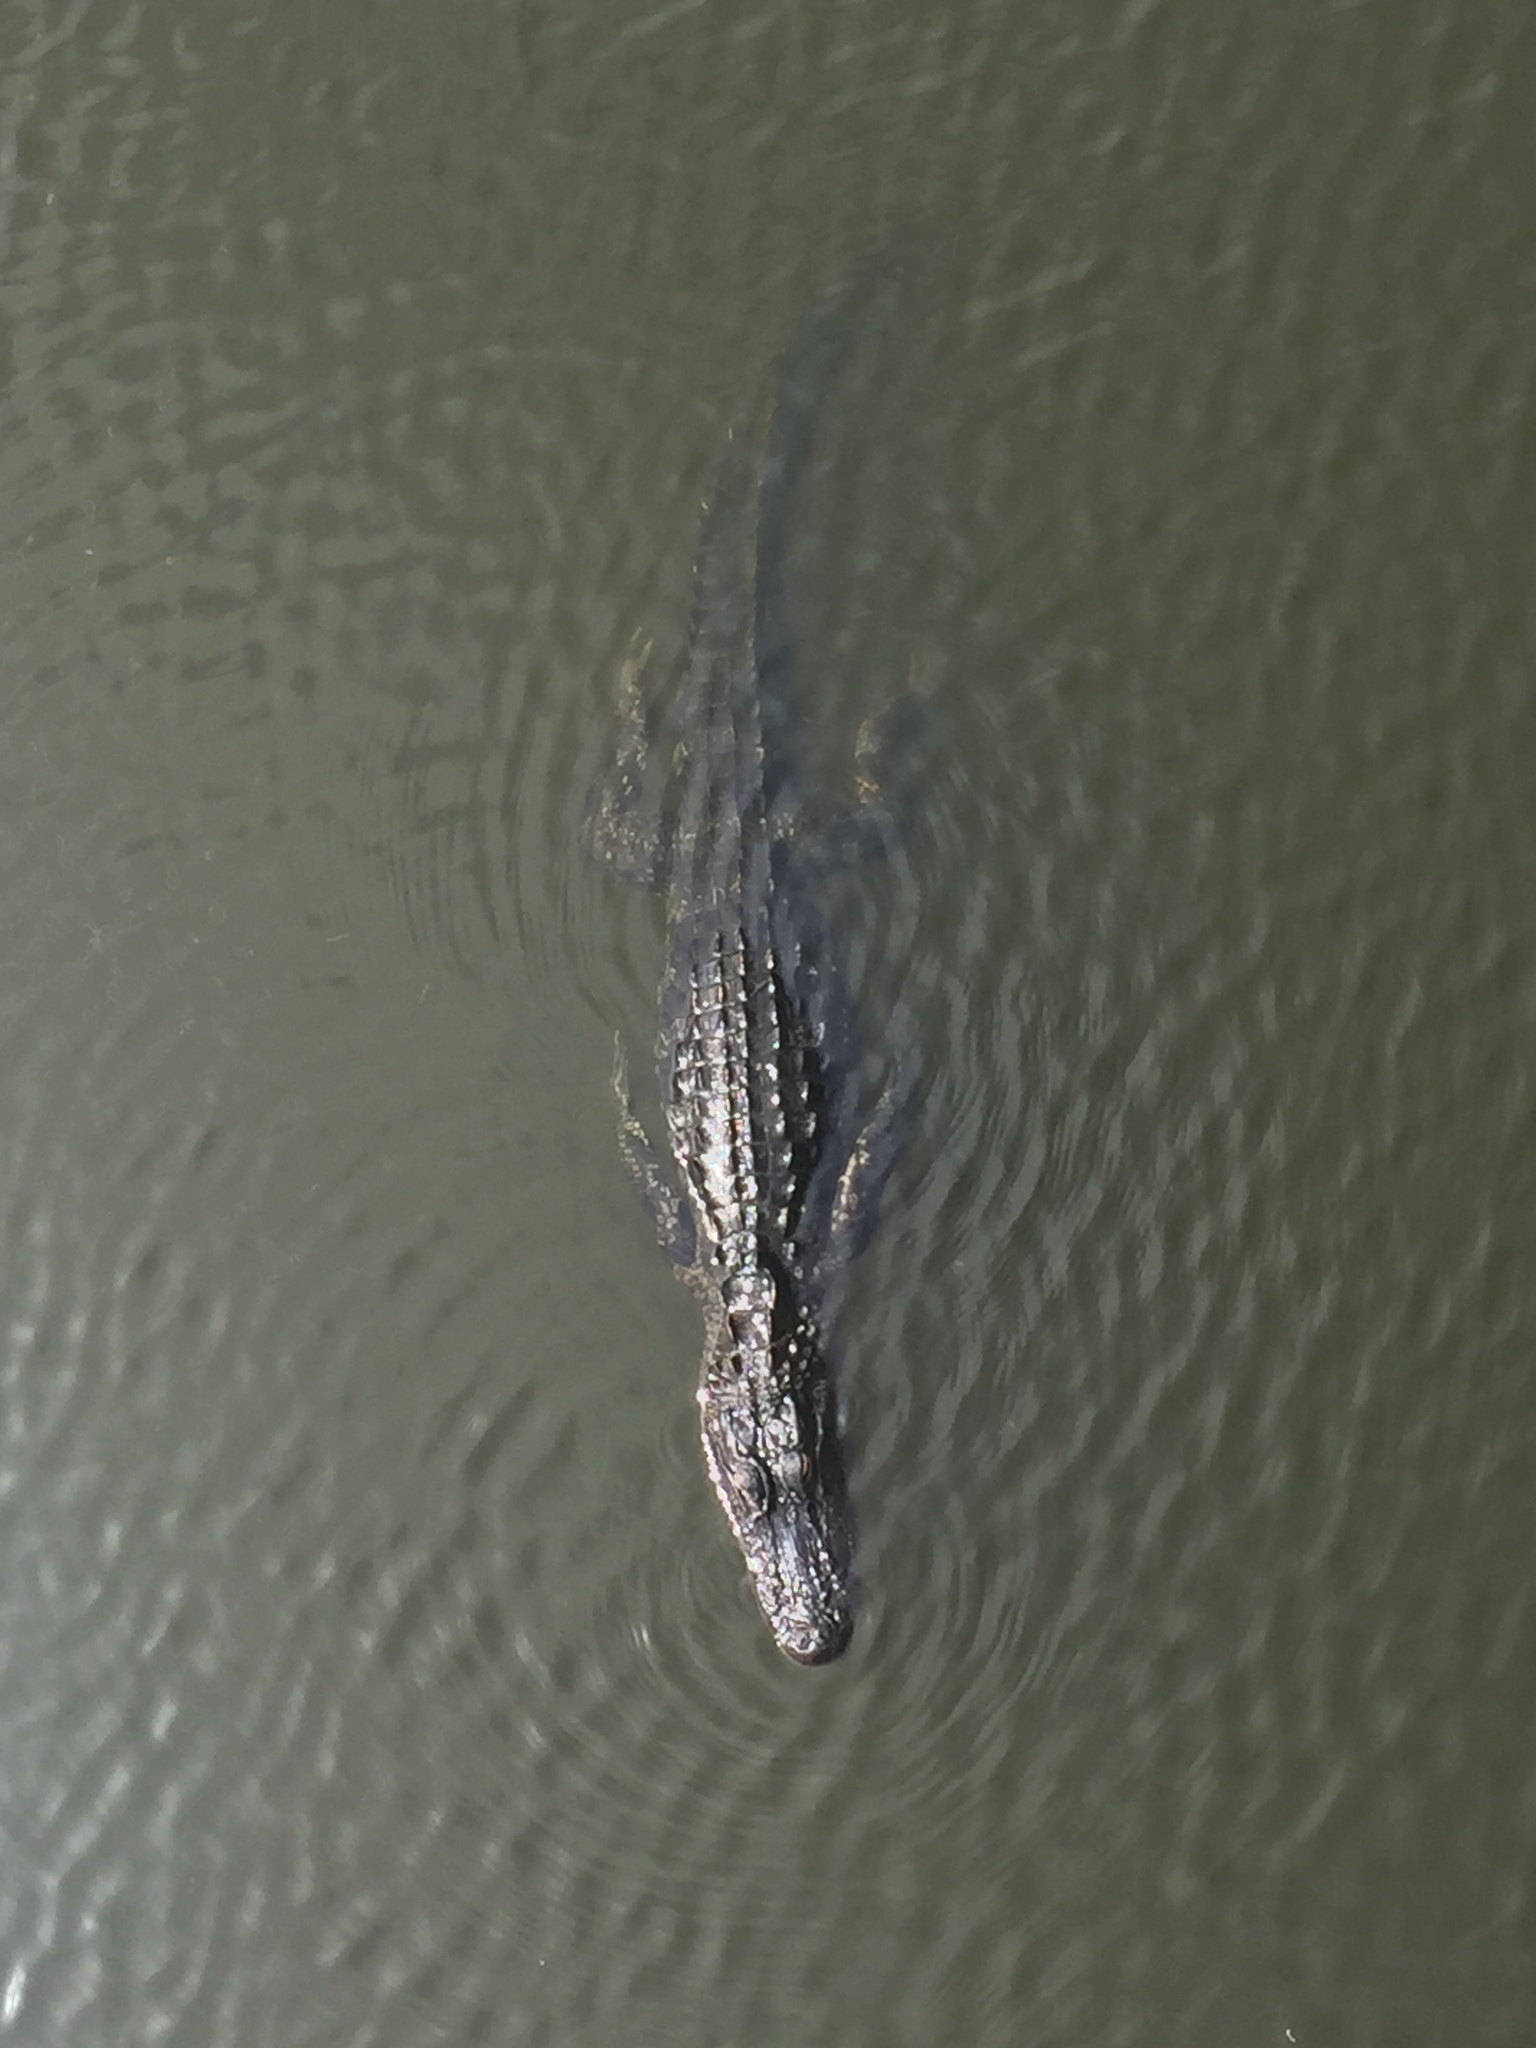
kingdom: Animalia
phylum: Chordata
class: Crocodylia
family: Alligatoridae
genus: Alligator
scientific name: Alligator mississippiensis
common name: American alligator
